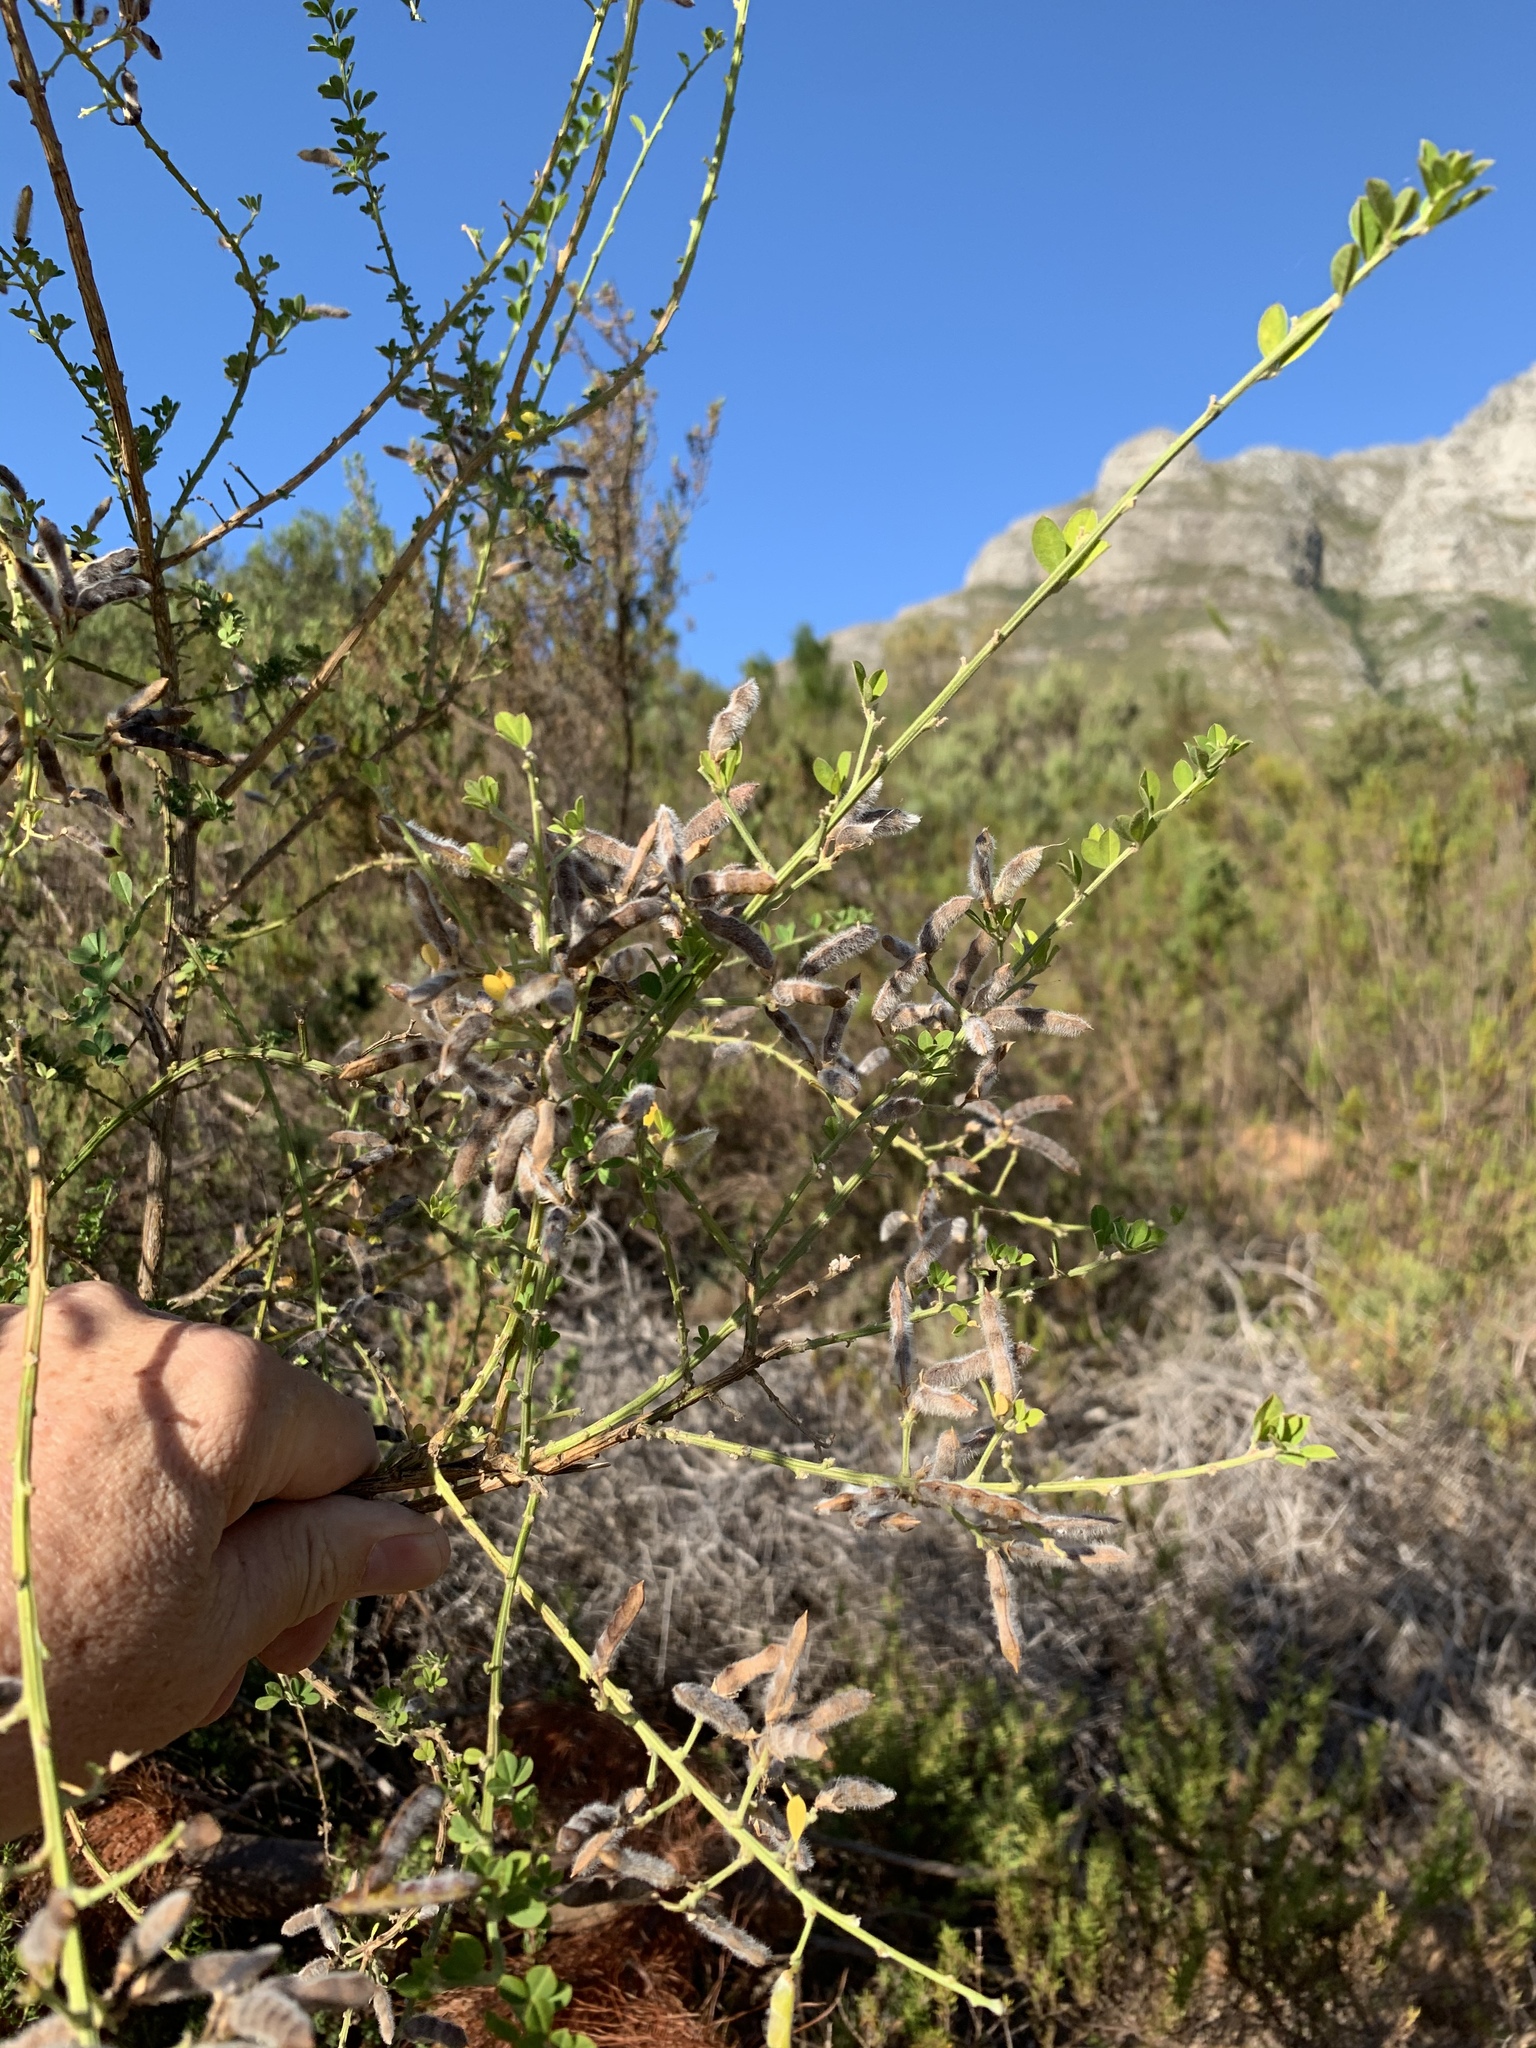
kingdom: Plantae
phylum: Tracheophyta
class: Magnoliopsida
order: Fabales
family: Fabaceae
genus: Genista
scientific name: Genista monspessulana
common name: Montpellier broom
